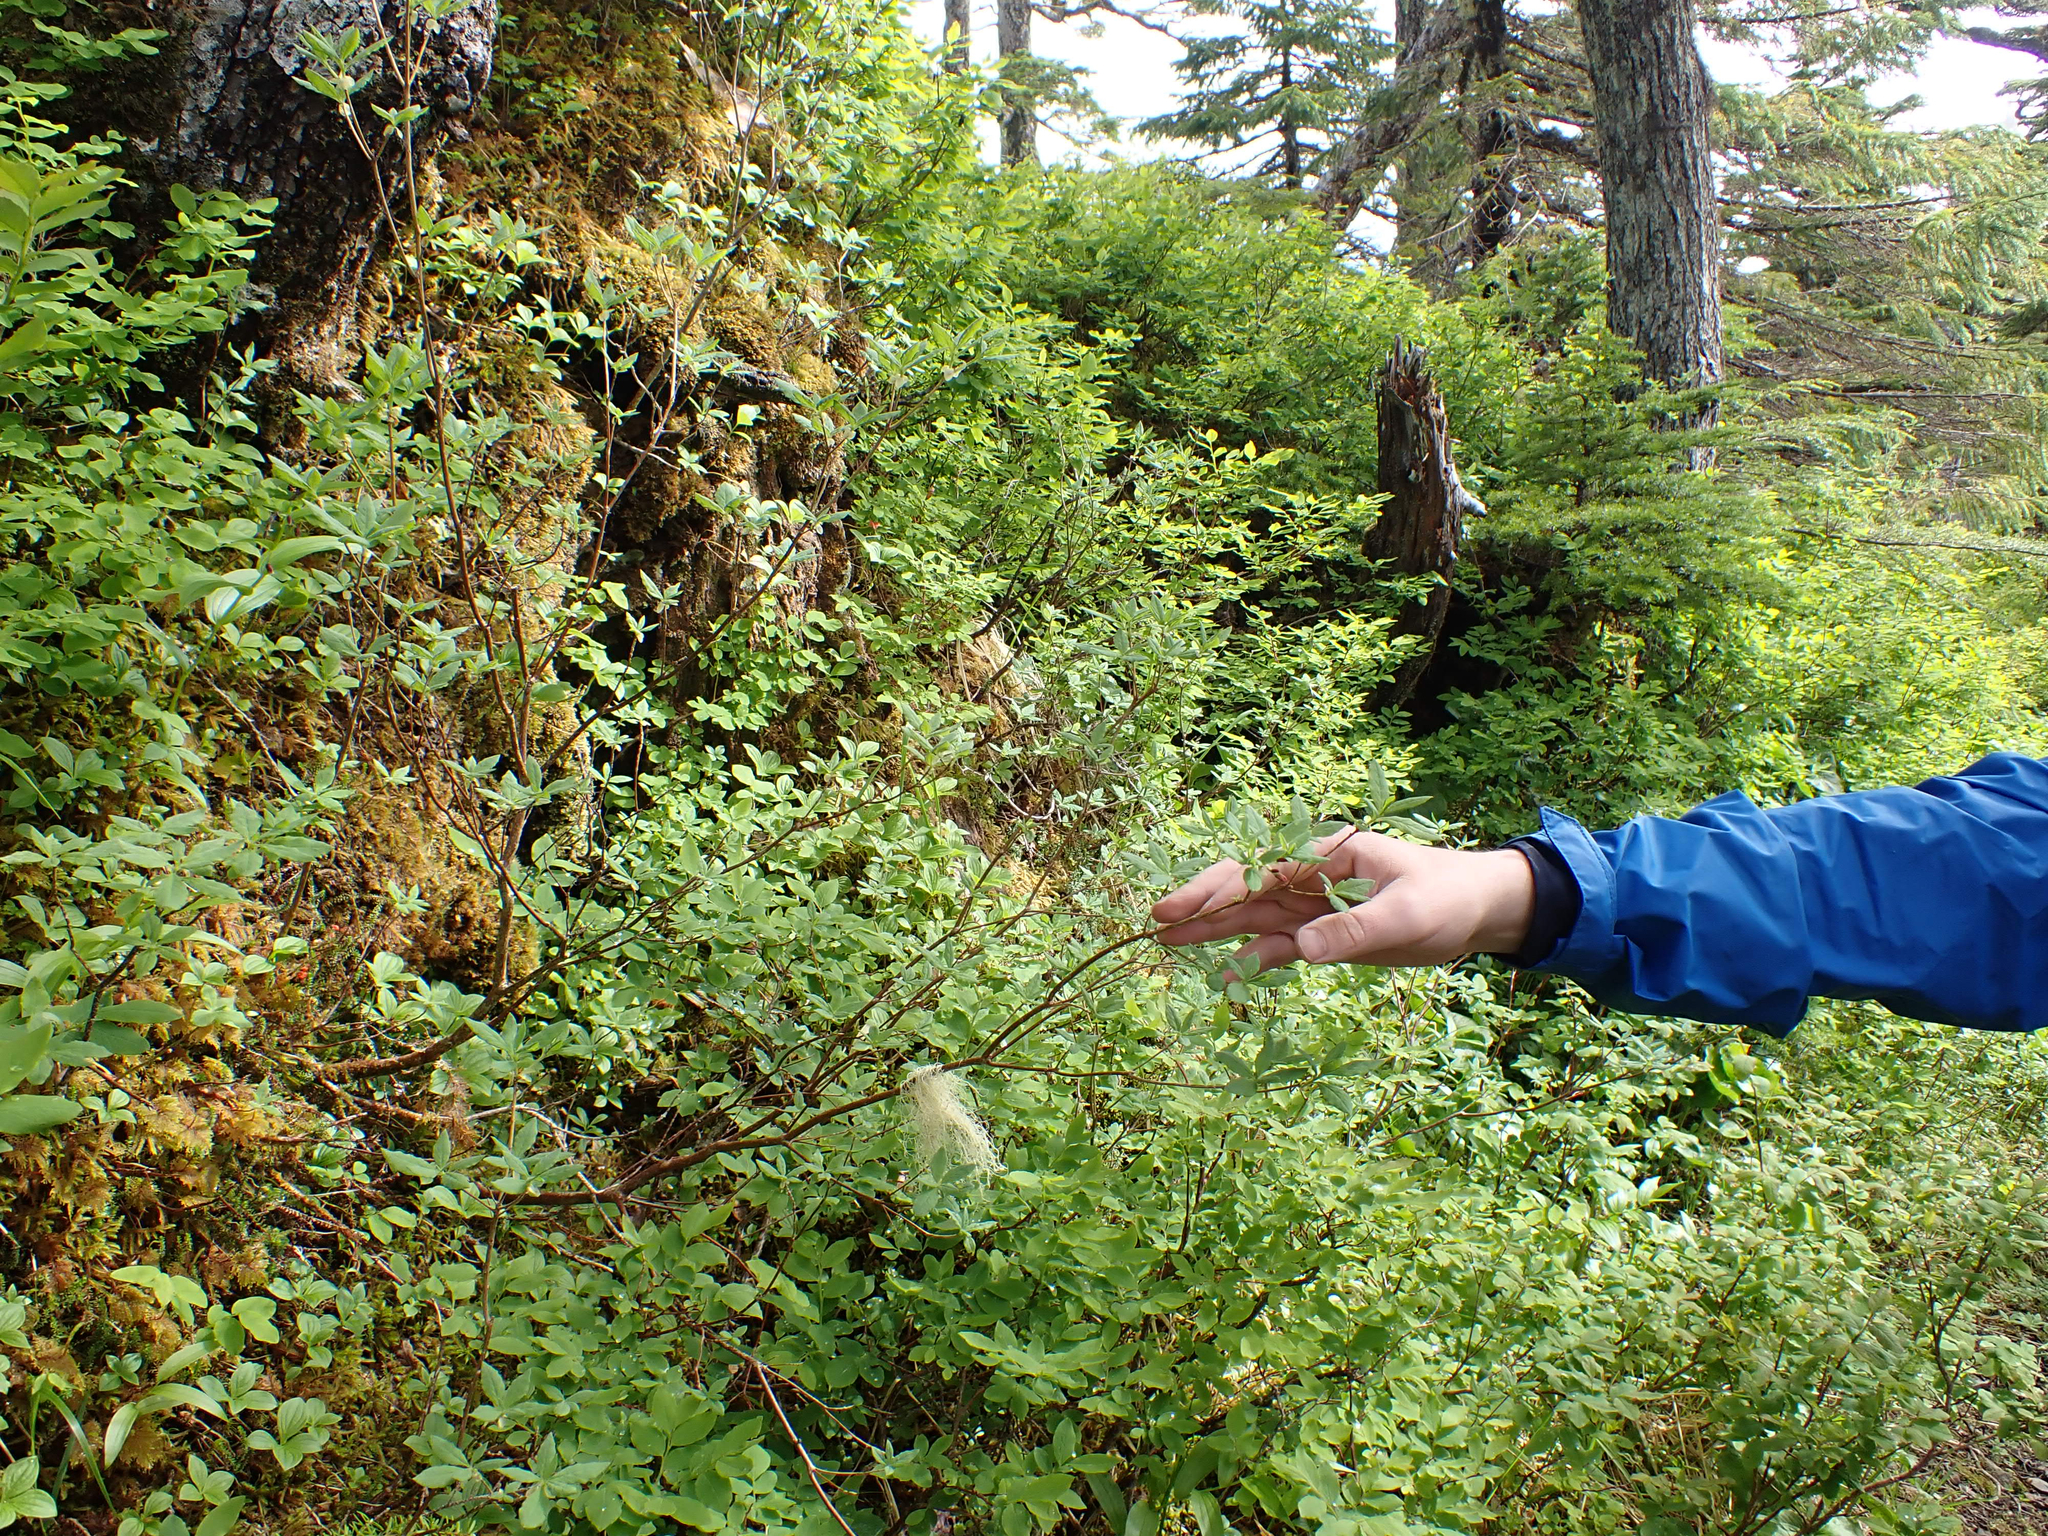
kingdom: Plantae
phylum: Tracheophyta
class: Magnoliopsida
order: Ericales
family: Ericaceae
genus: Rhododendron
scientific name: Rhododendron menziesii
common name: Pacific menziesia
